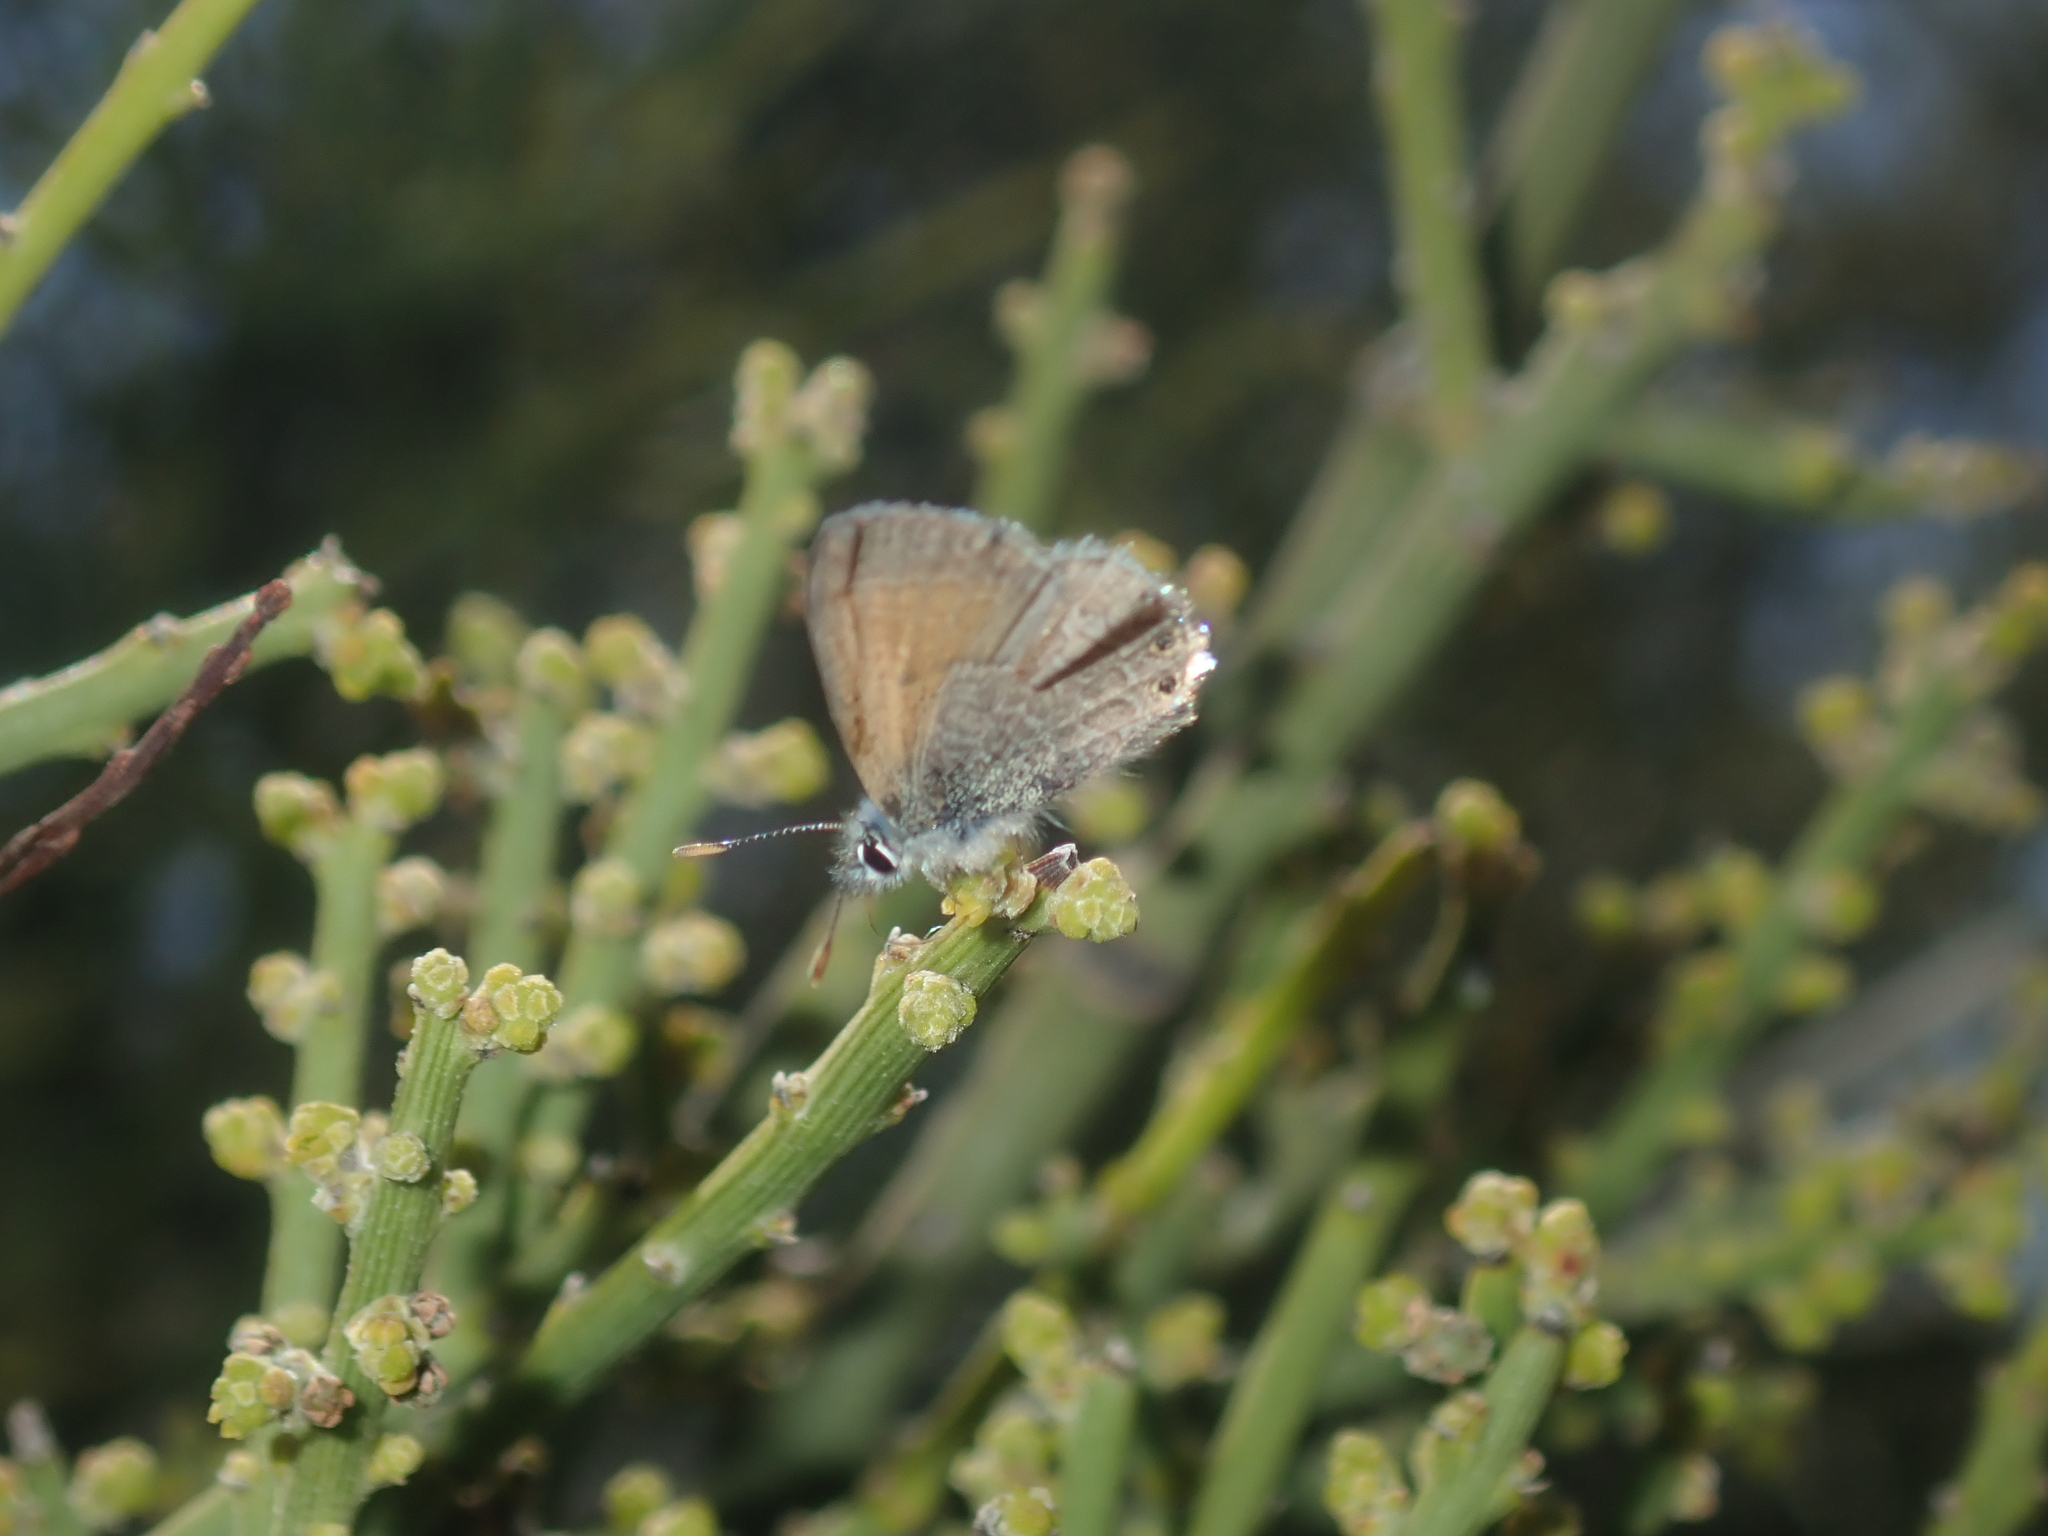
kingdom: Animalia
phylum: Arthropoda
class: Insecta
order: Lepidoptera
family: Lycaenidae
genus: Nacaduba
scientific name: Nacaduba biocellata
